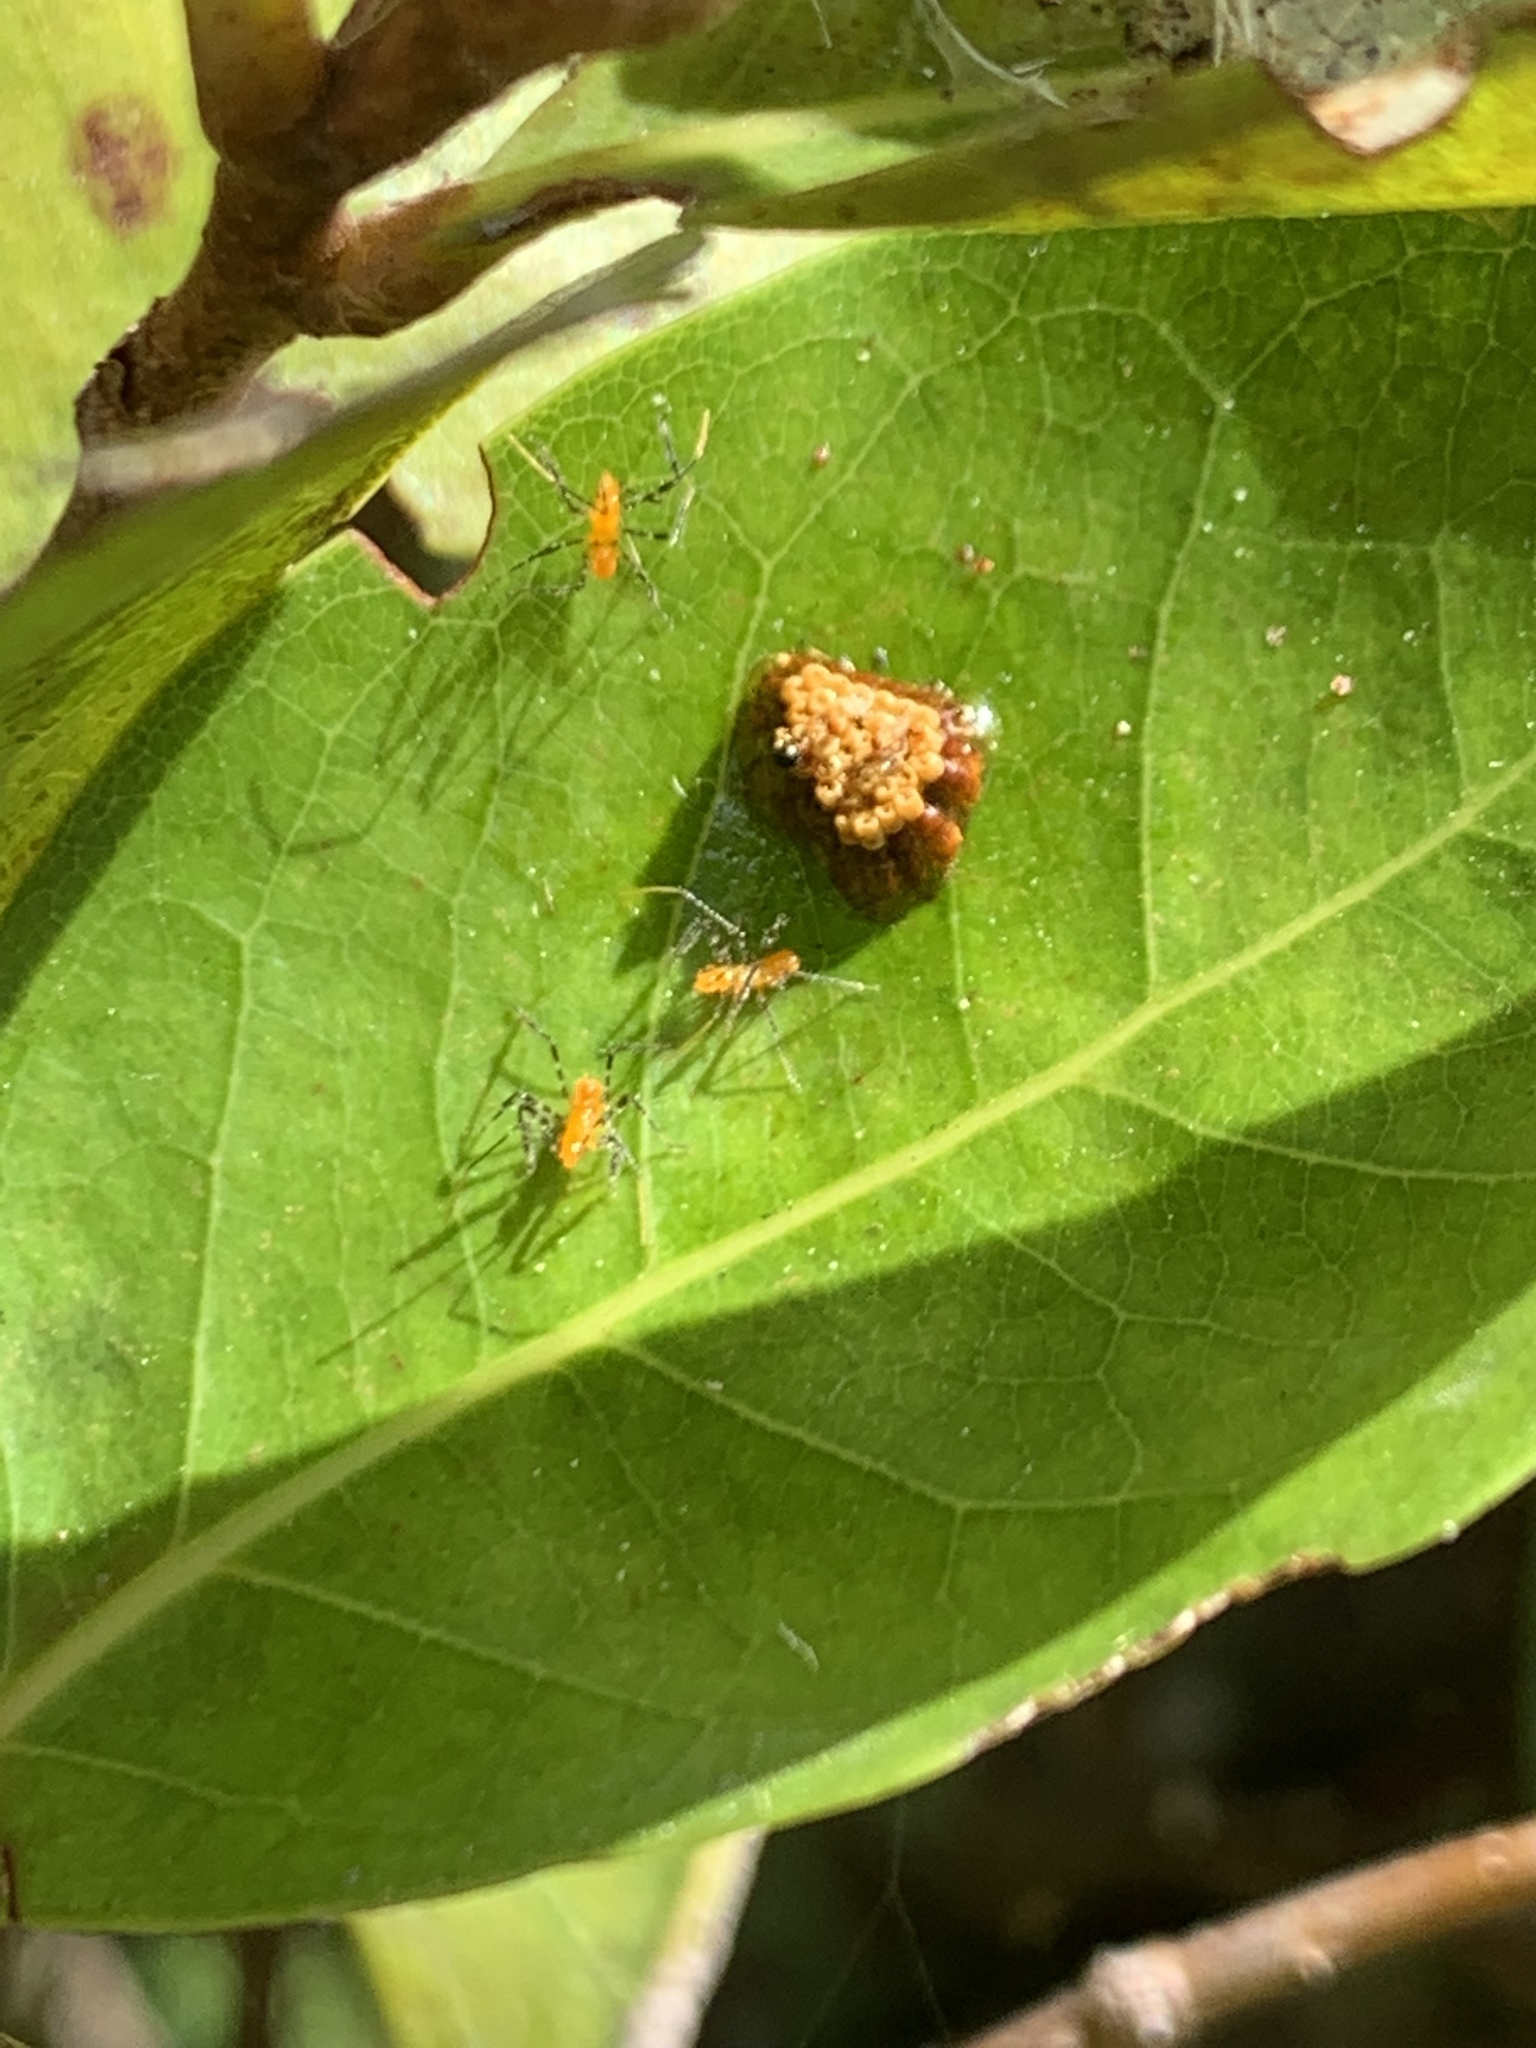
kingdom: Animalia
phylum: Arthropoda
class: Insecta
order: Hemiptera
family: Reduviidae
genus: Zelus
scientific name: Zelus longipes
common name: Milkweed assassin bug
